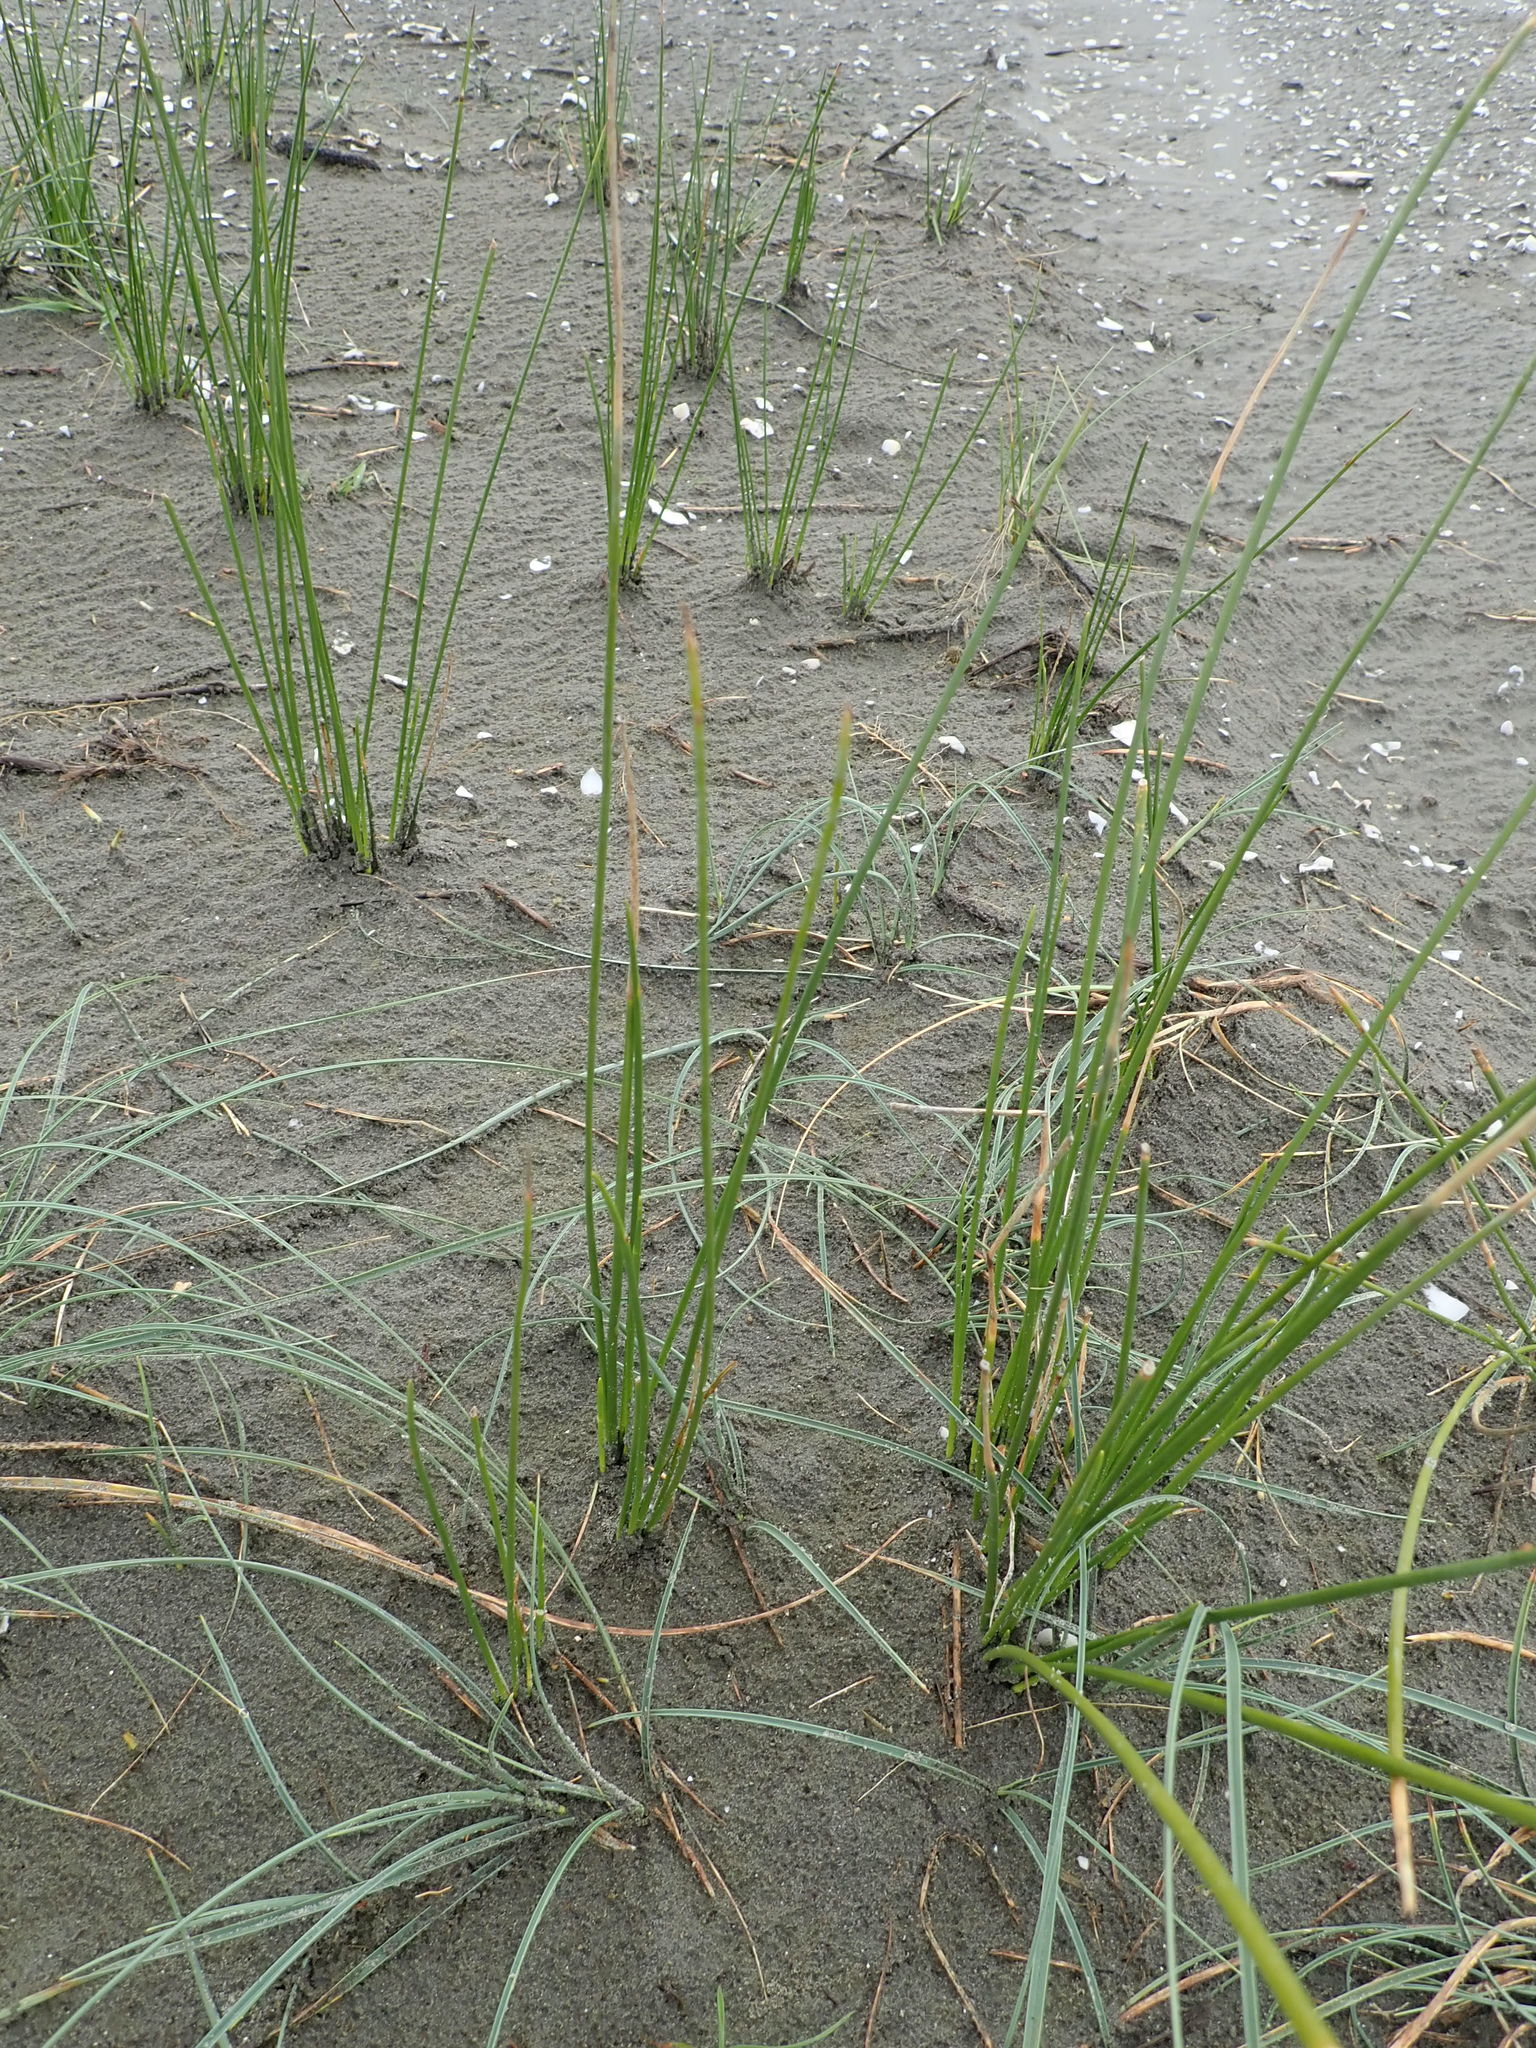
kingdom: Plantae
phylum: Tracheophyta
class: Liliopsida
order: Poales
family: Cyperaceae
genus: Ficinia
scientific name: Ficinia nodosa
